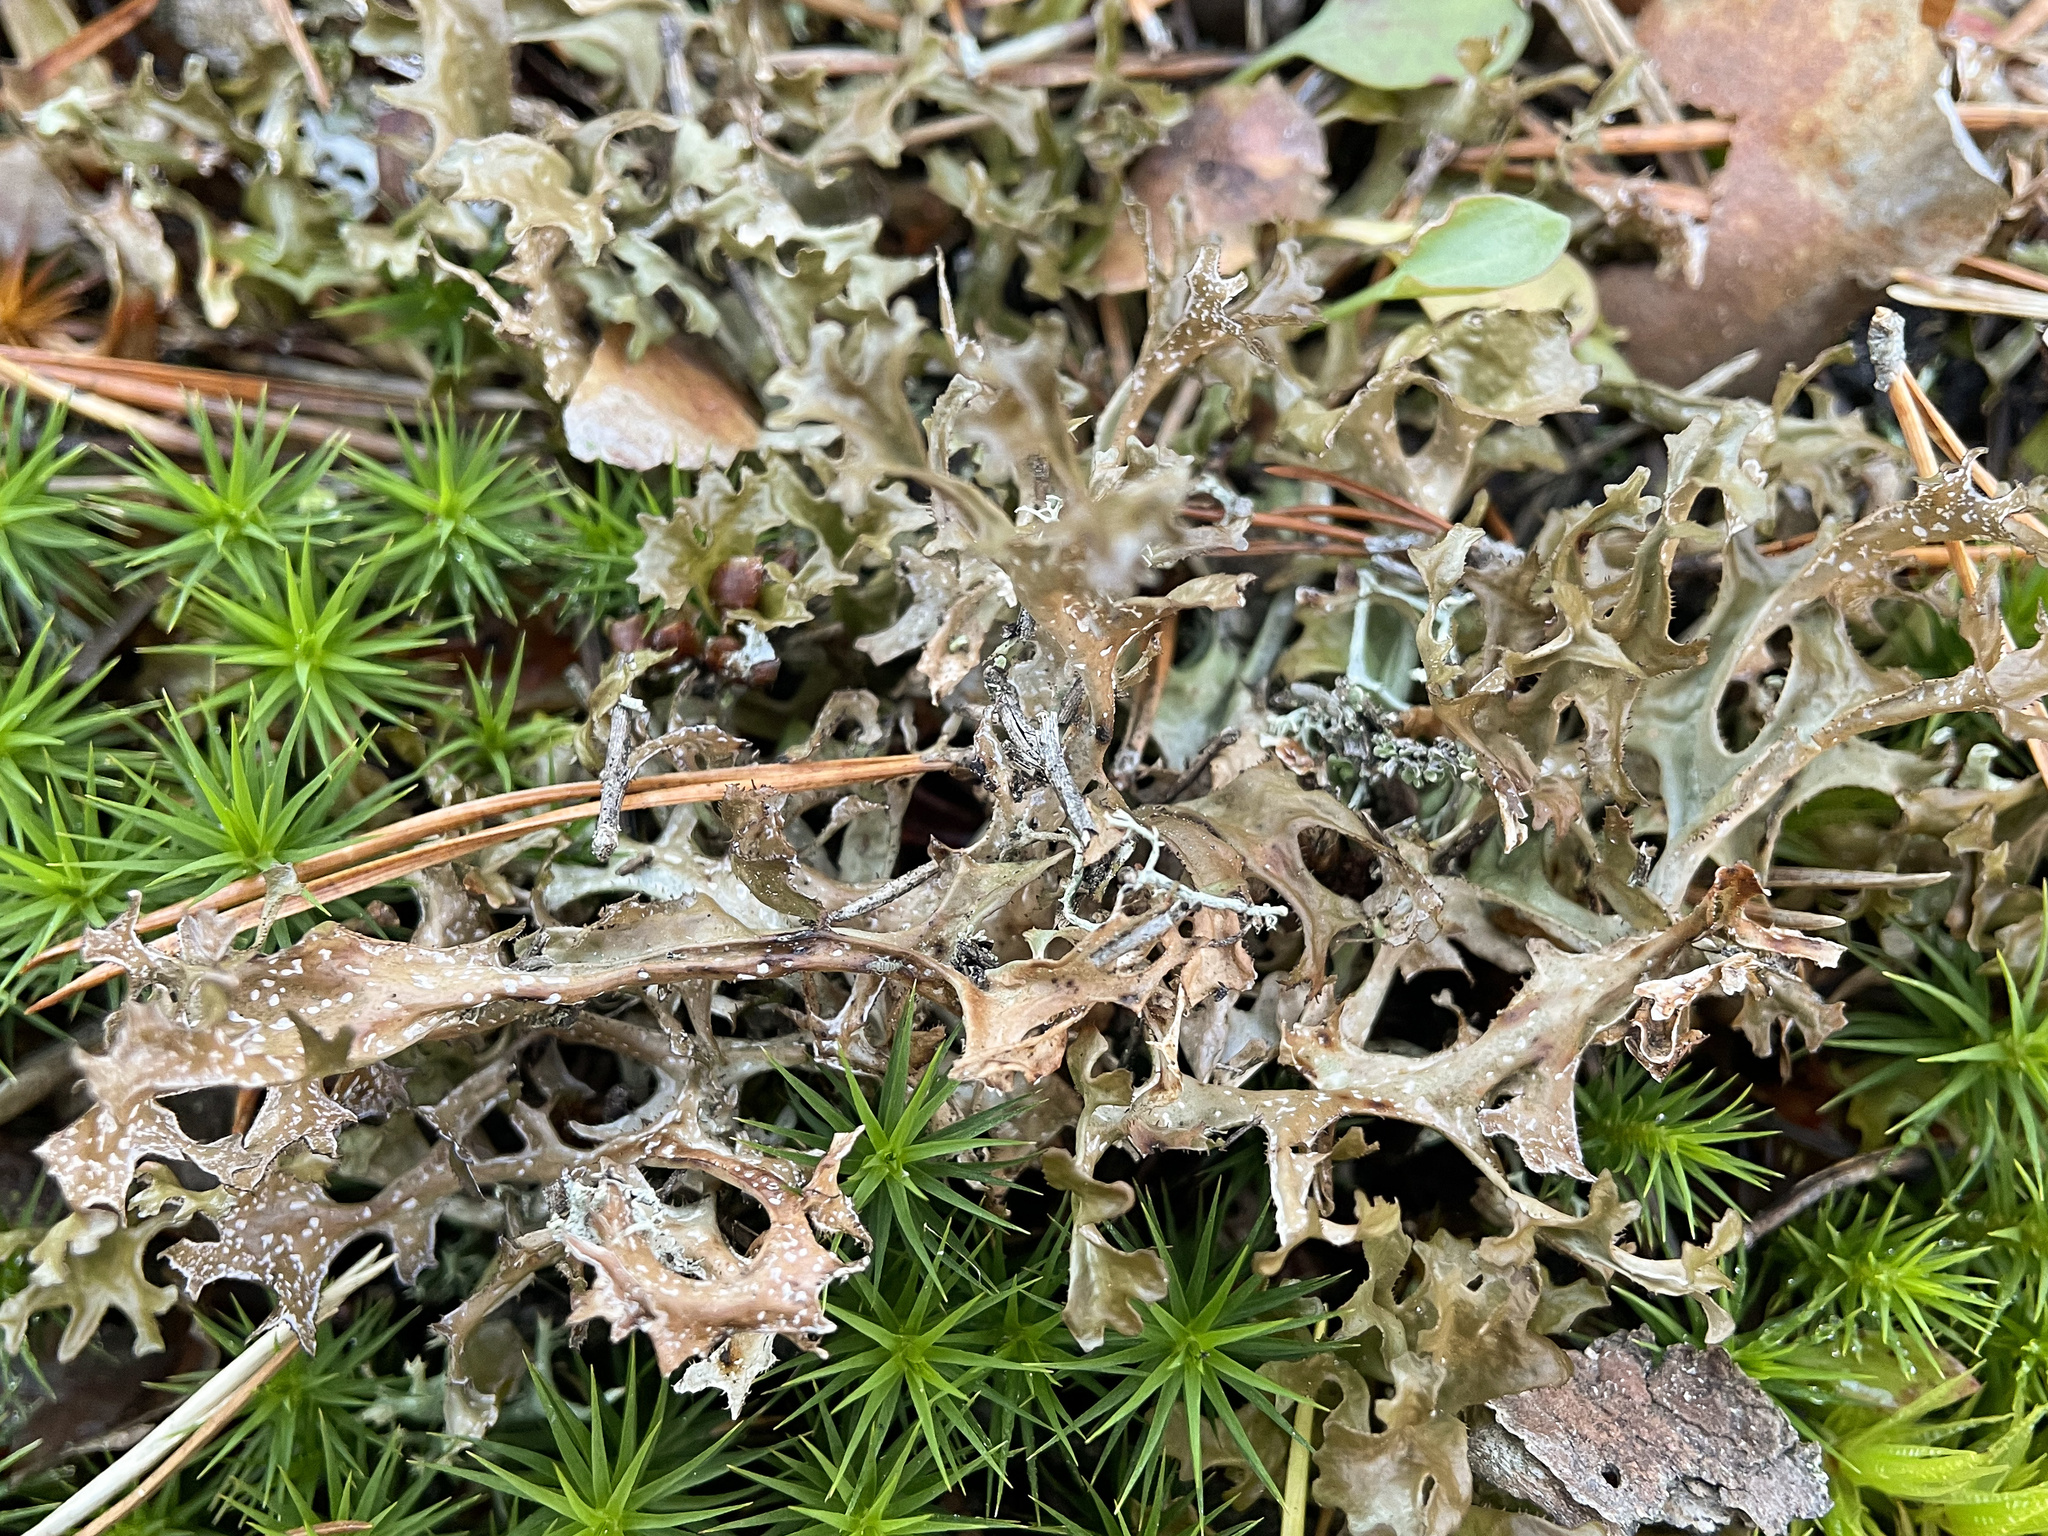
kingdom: Fungi
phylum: Ascomycota
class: Lecanoromycetes
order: Lecanorales
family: Parmeliaceae
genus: Cetraria
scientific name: Cetraria islandica
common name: Iceland lichen
